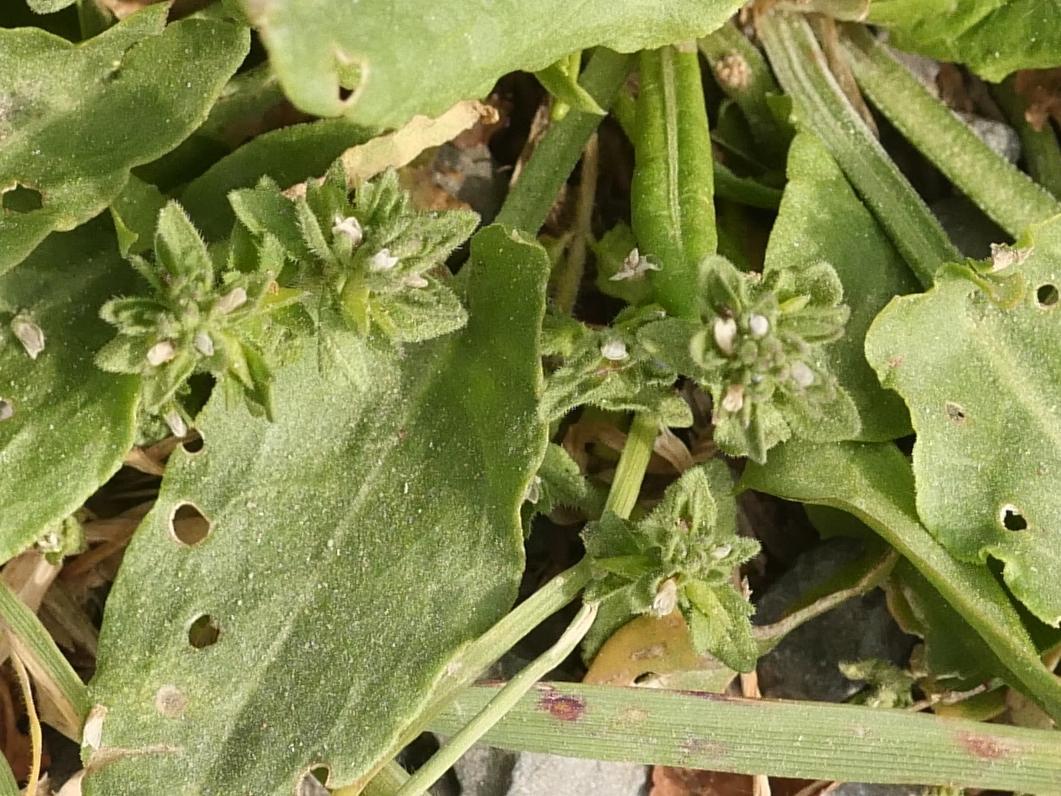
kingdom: Plantae
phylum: Tracheophyta
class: Magnoliopsida
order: Lamiales
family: Plantaginaceae
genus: Veronica
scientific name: Veronica arvensis
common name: Corn speedwell
